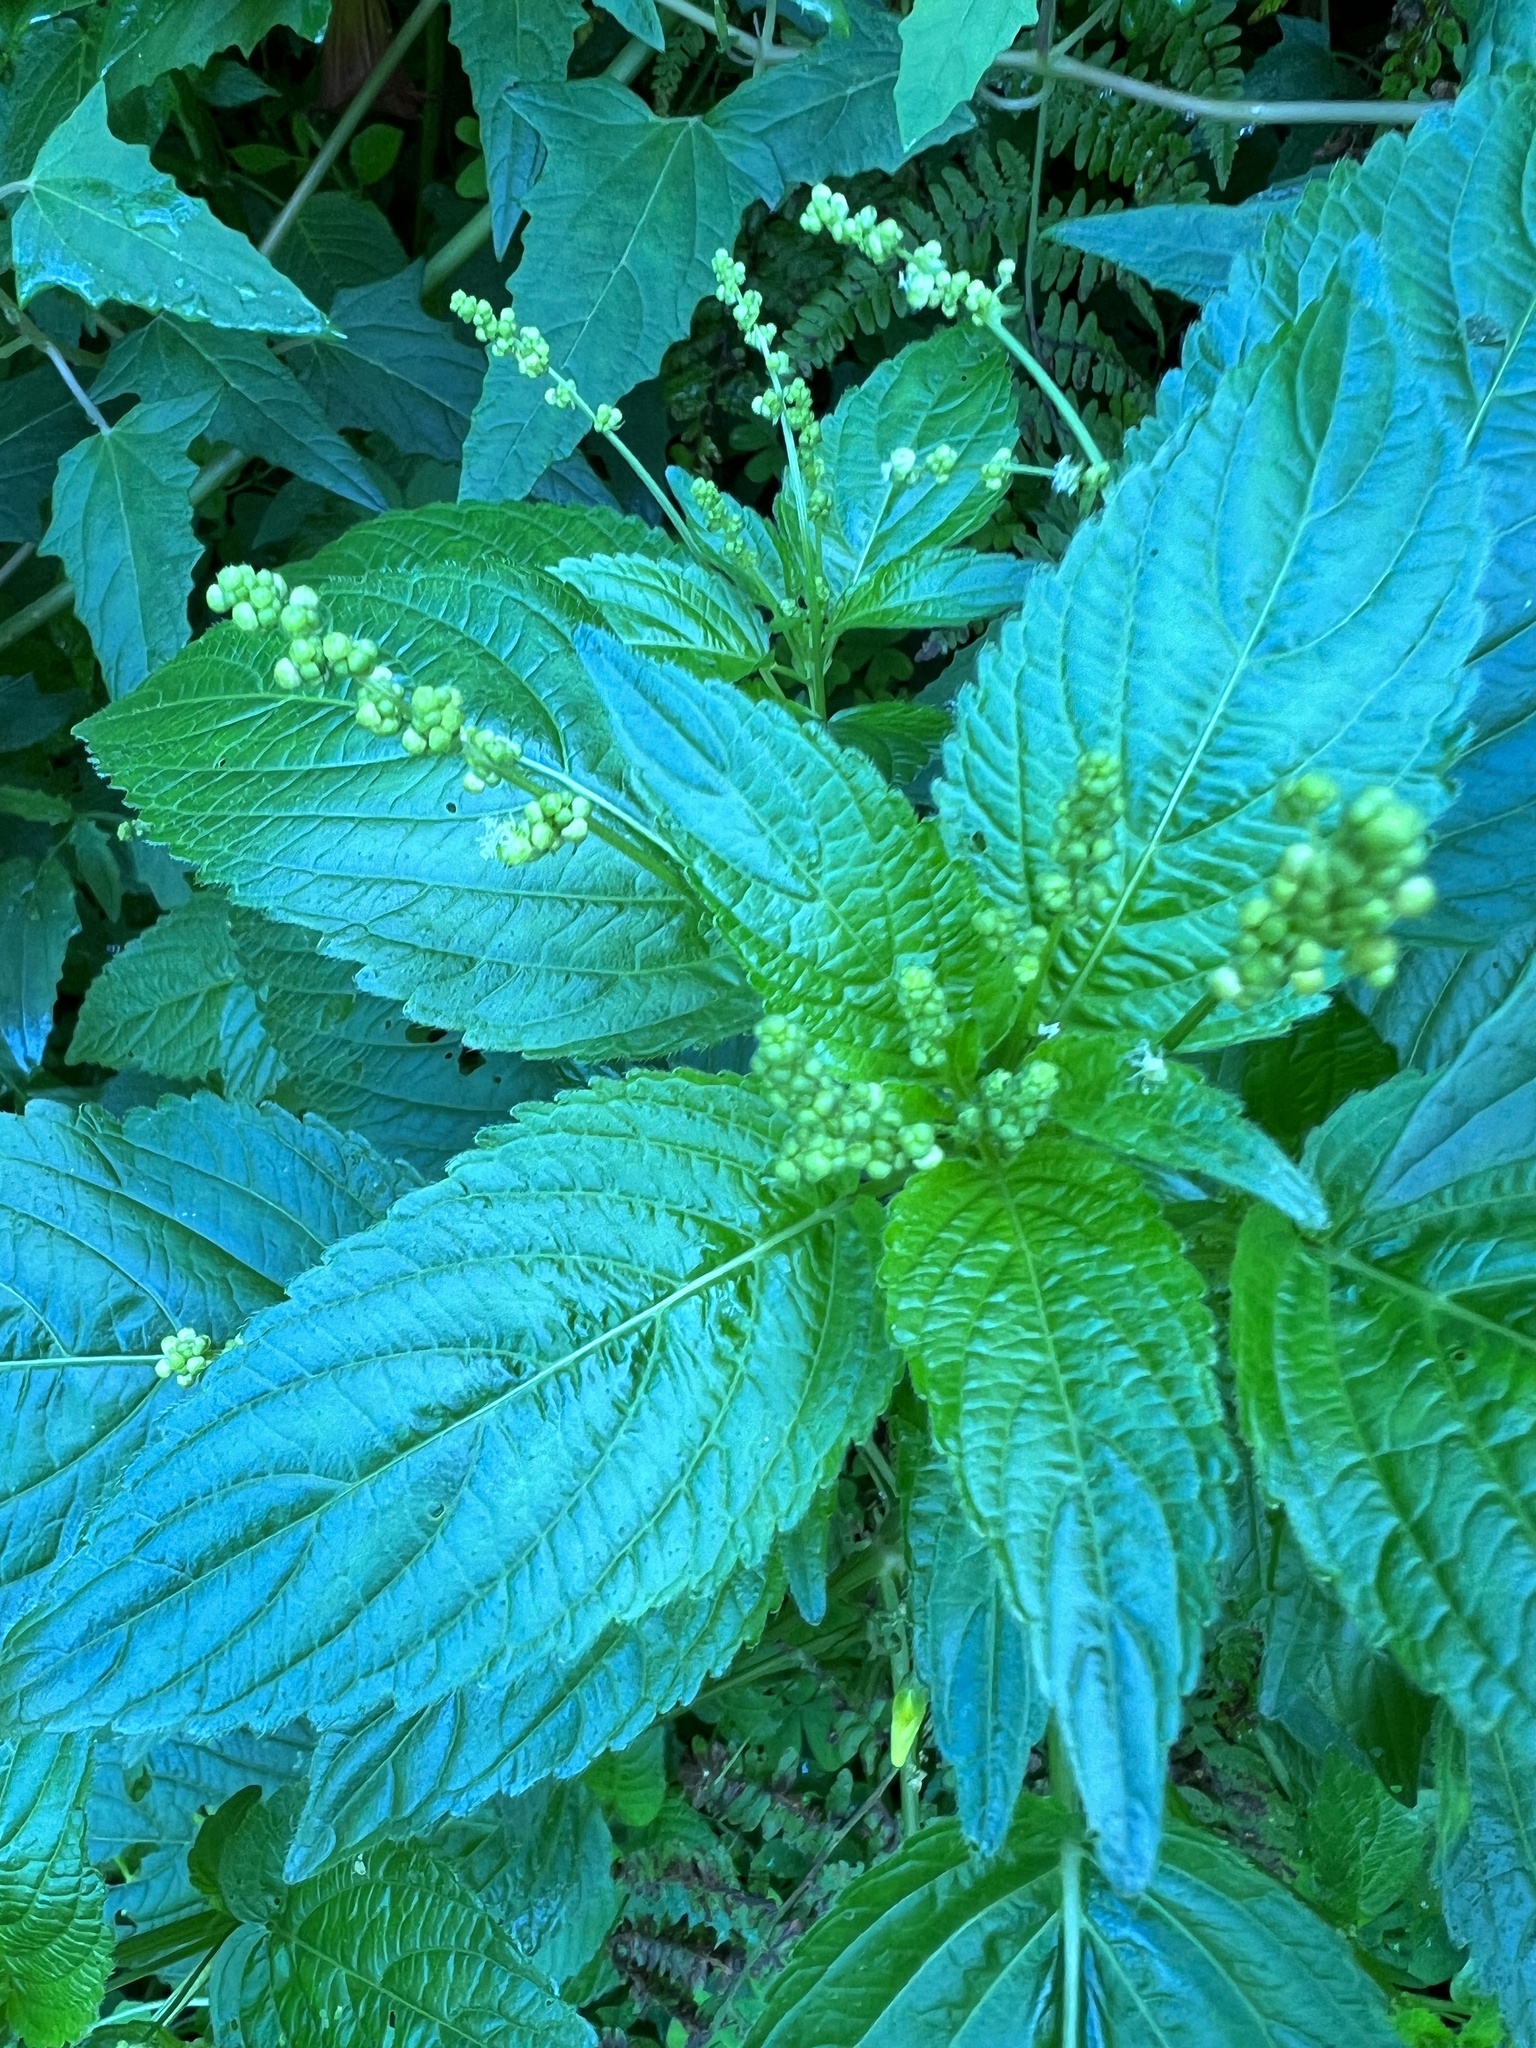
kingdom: Plantae
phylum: Tracheophyta
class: Magnoliopsida
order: Malpighiales
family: Euphorbiaceae
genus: Mercurialis
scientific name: Mercurialis annua
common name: Annual mercury
